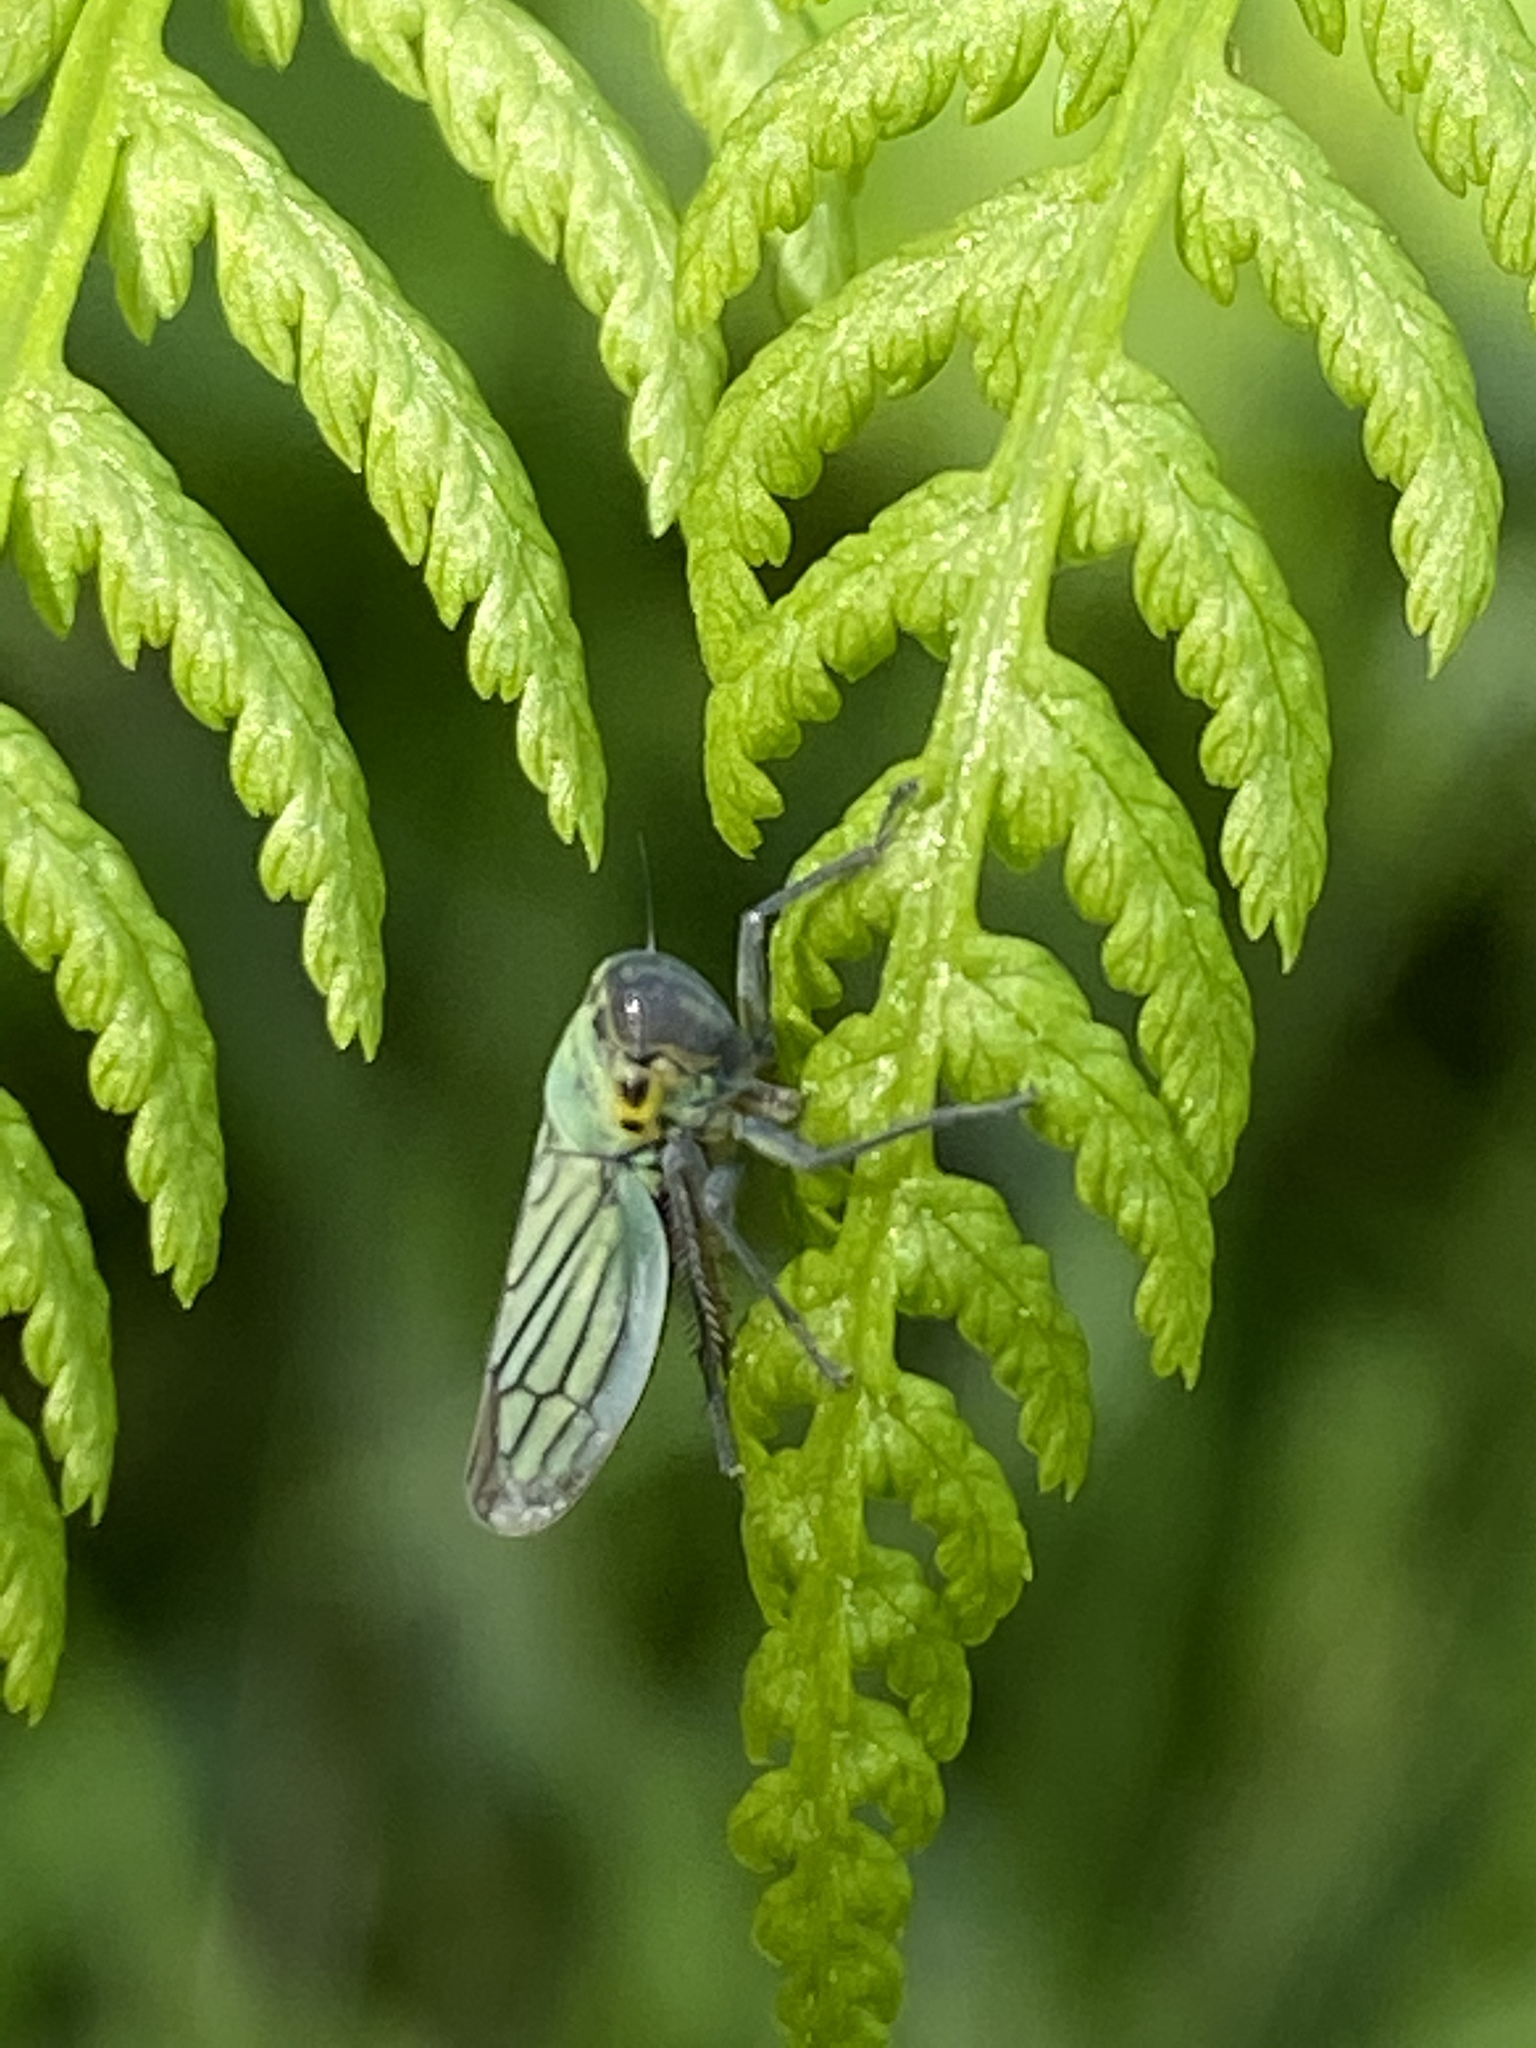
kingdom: Animalia
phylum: Arthropoda
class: Insecta
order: Hemiptera
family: Cicadellidae
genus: Cicadella
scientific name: Cicadella viridis
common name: Leafhopper
